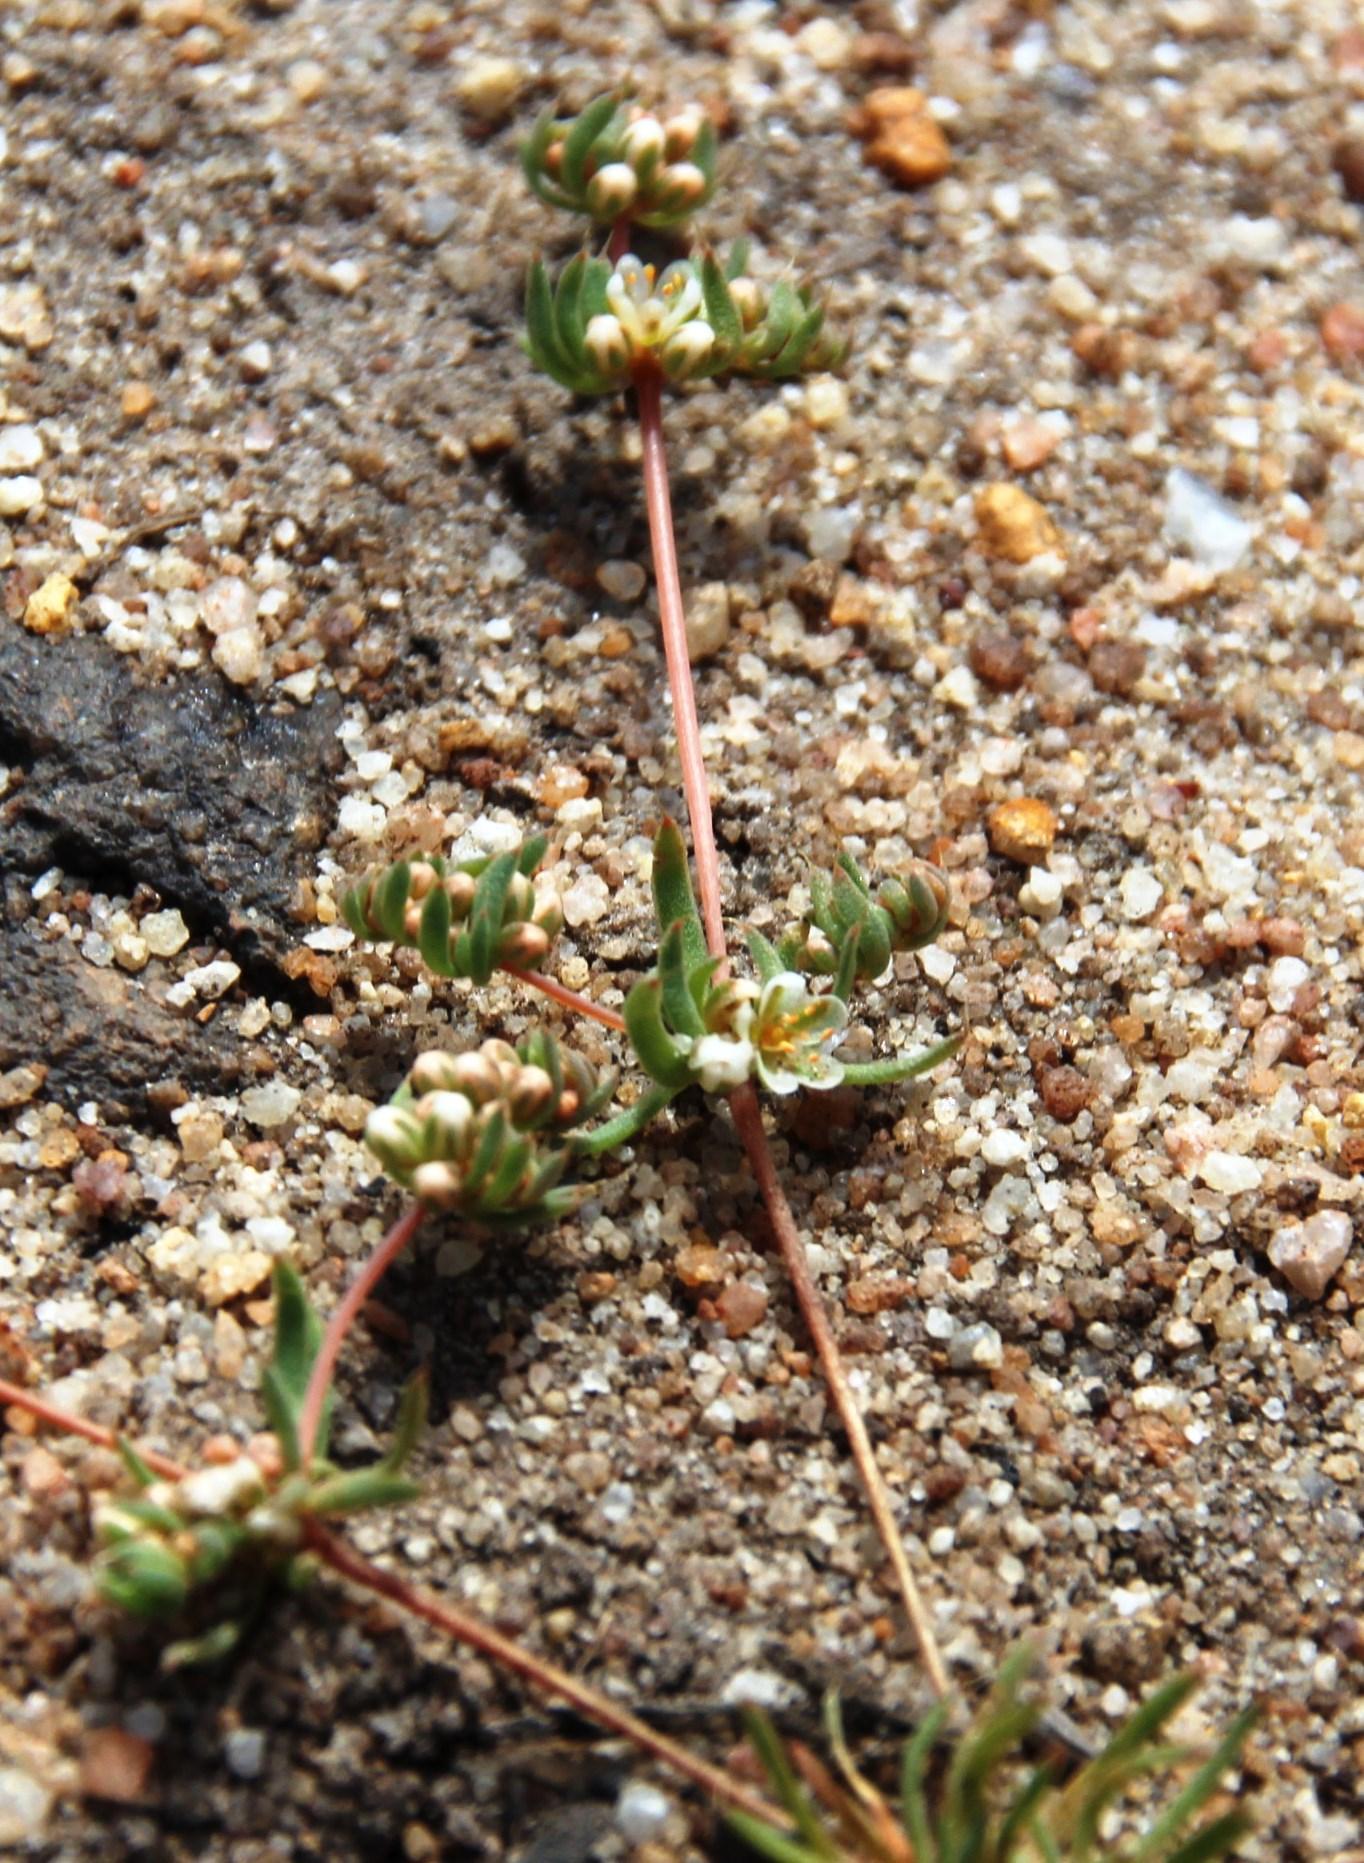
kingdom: Plantae
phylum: Tracheophyta
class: Magnoliopsida
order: Caryophyllales
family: Molluginaceae
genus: Adenogramma
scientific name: Adenogramma glomerata
